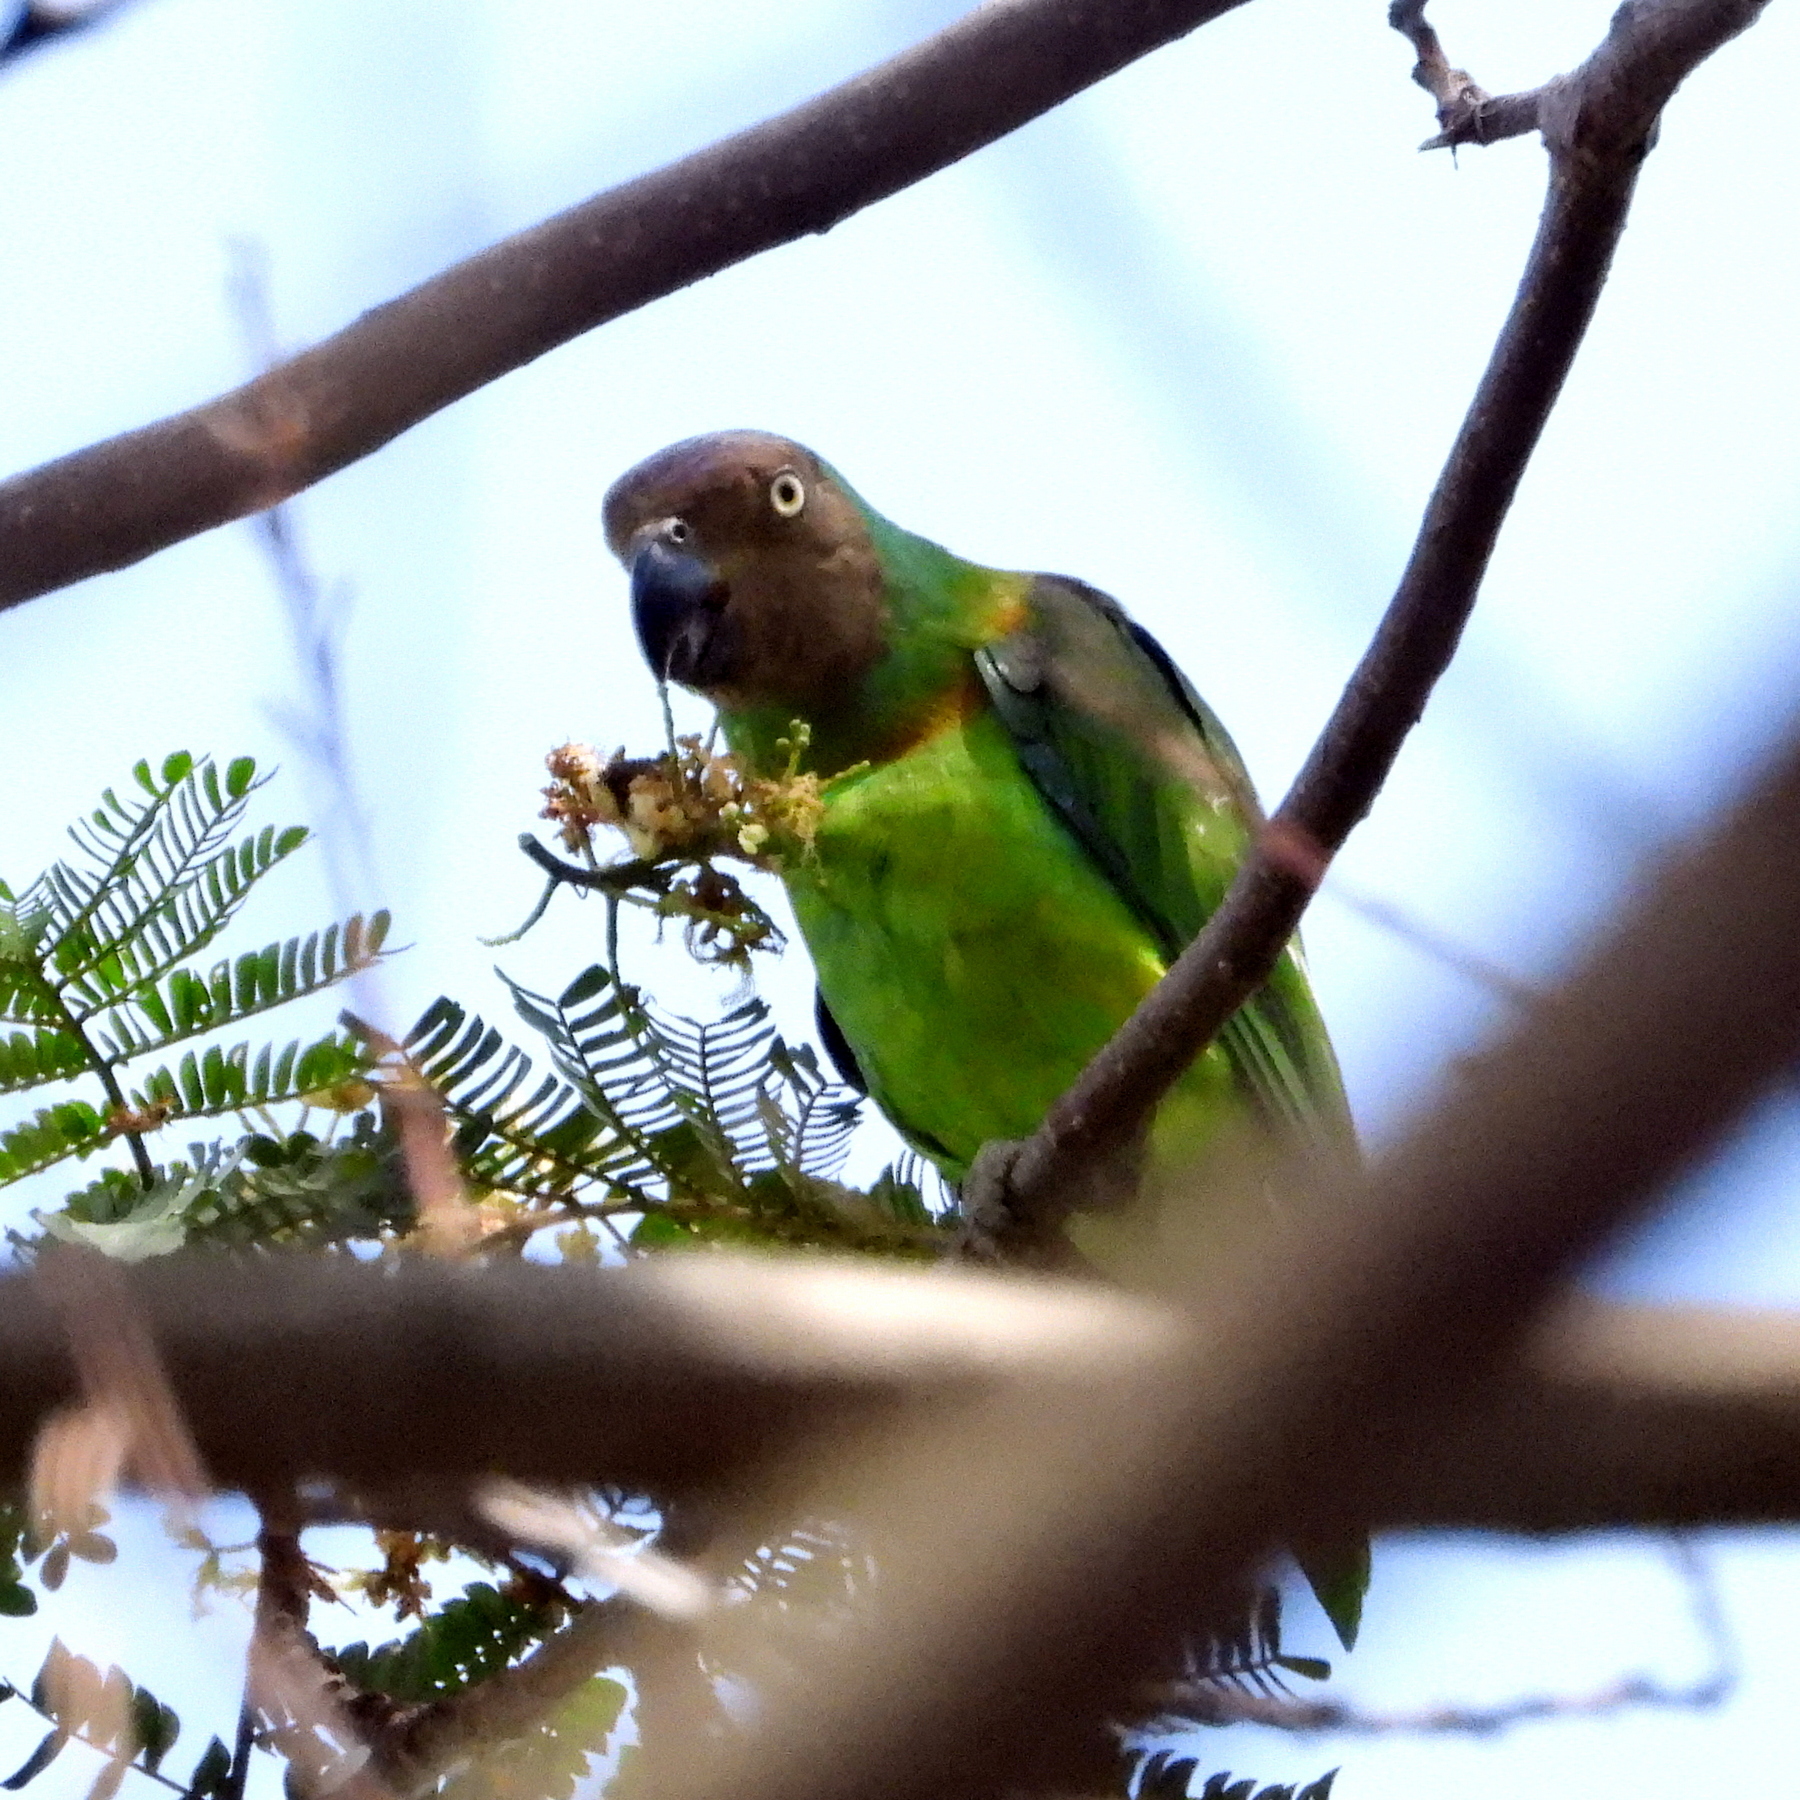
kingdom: Animalia
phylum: Chordata
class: Aves
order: Psittaciformes
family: Psittacidae
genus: Geoffroyus
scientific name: Geoffroyus geoffroyi
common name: Red-cheeked parrot
